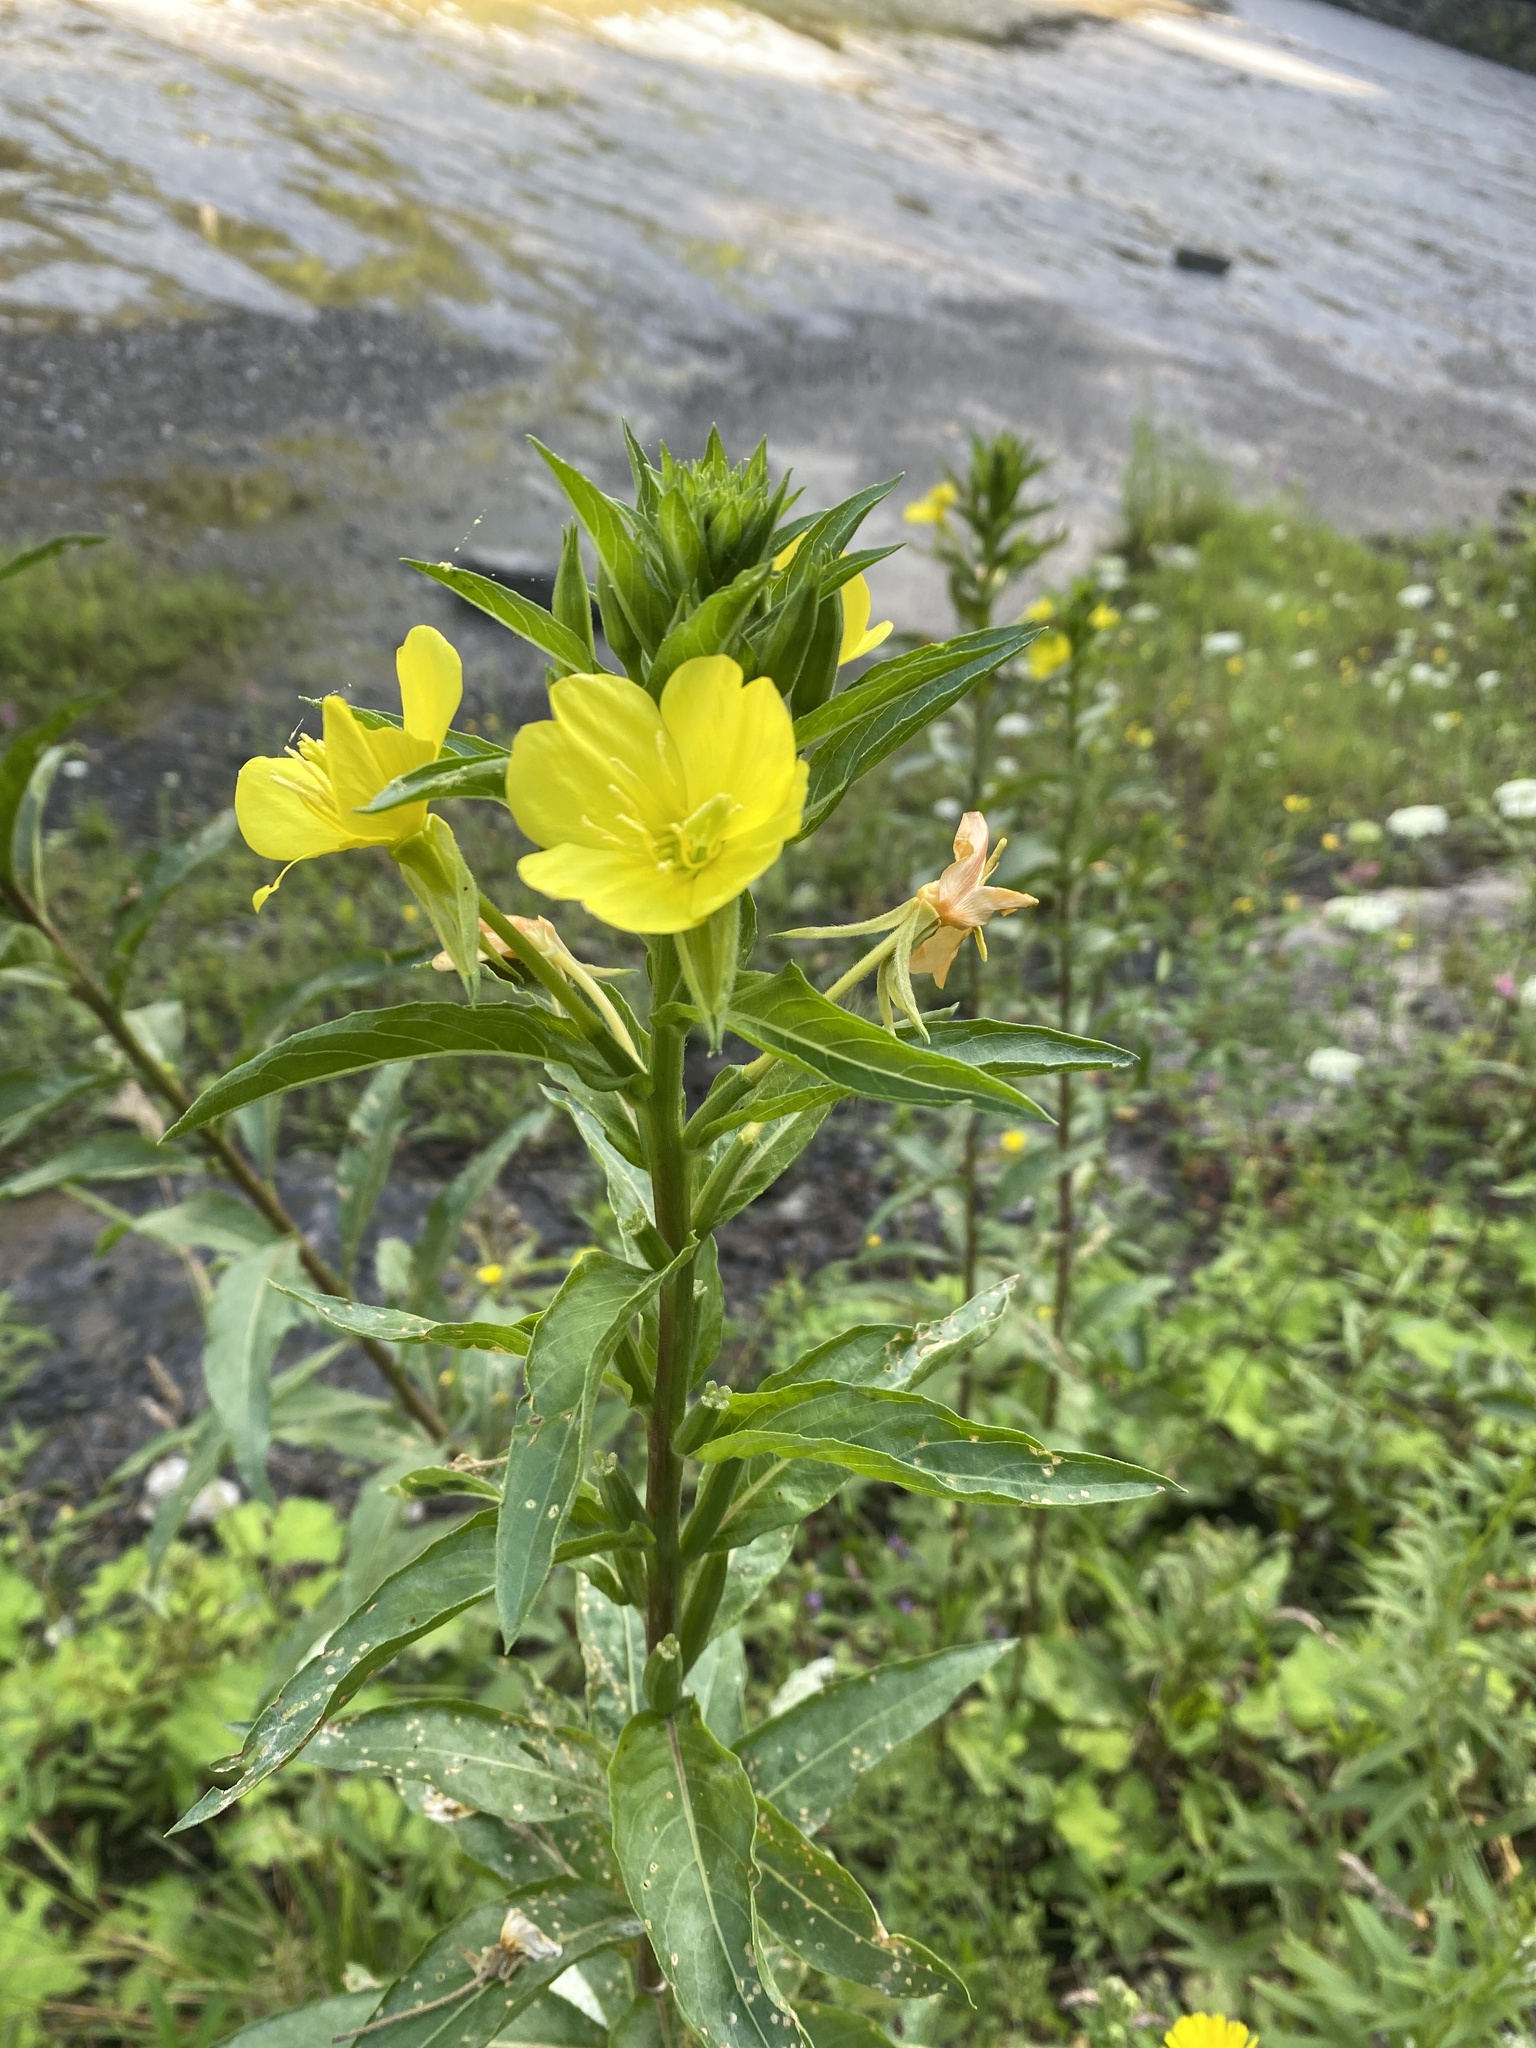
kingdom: Plantae
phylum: Tracheophyta
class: Magnoliopsida
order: Myrtales
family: Onagraceae
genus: Oenothera
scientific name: Oenothera biennis
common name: Common evening-primrose
